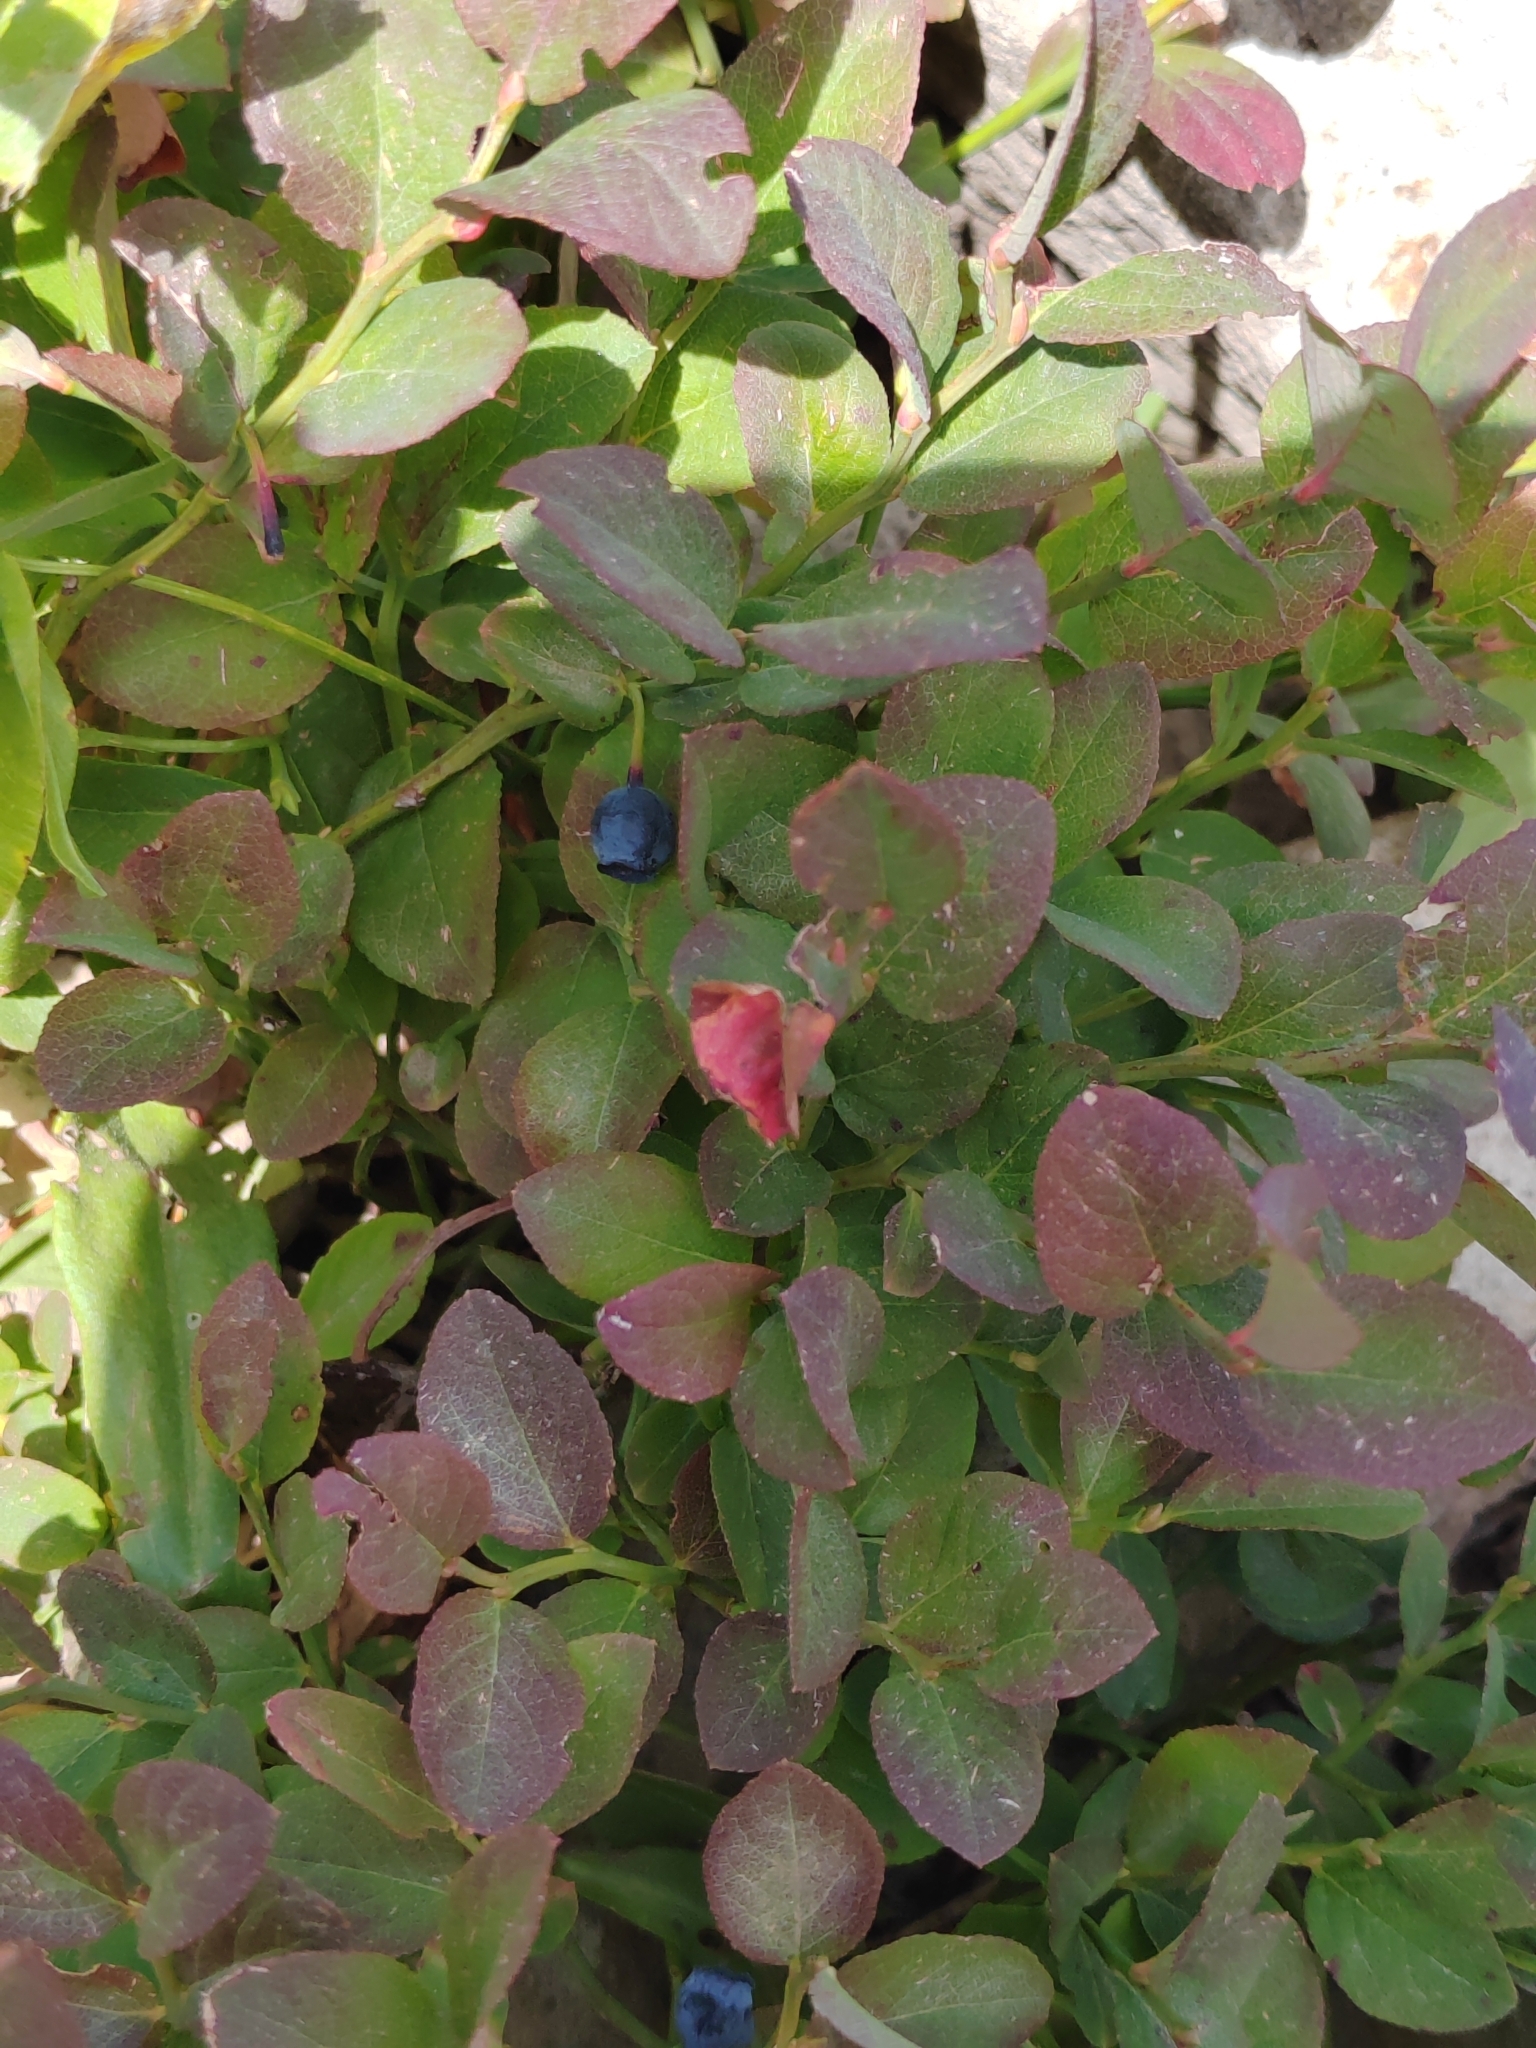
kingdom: Plantae
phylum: Tracheophyta
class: Magnoliopsida
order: Ericales
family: Ericaceae
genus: Vaccinium
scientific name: Vaccinium myrtillus
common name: Bilberry
